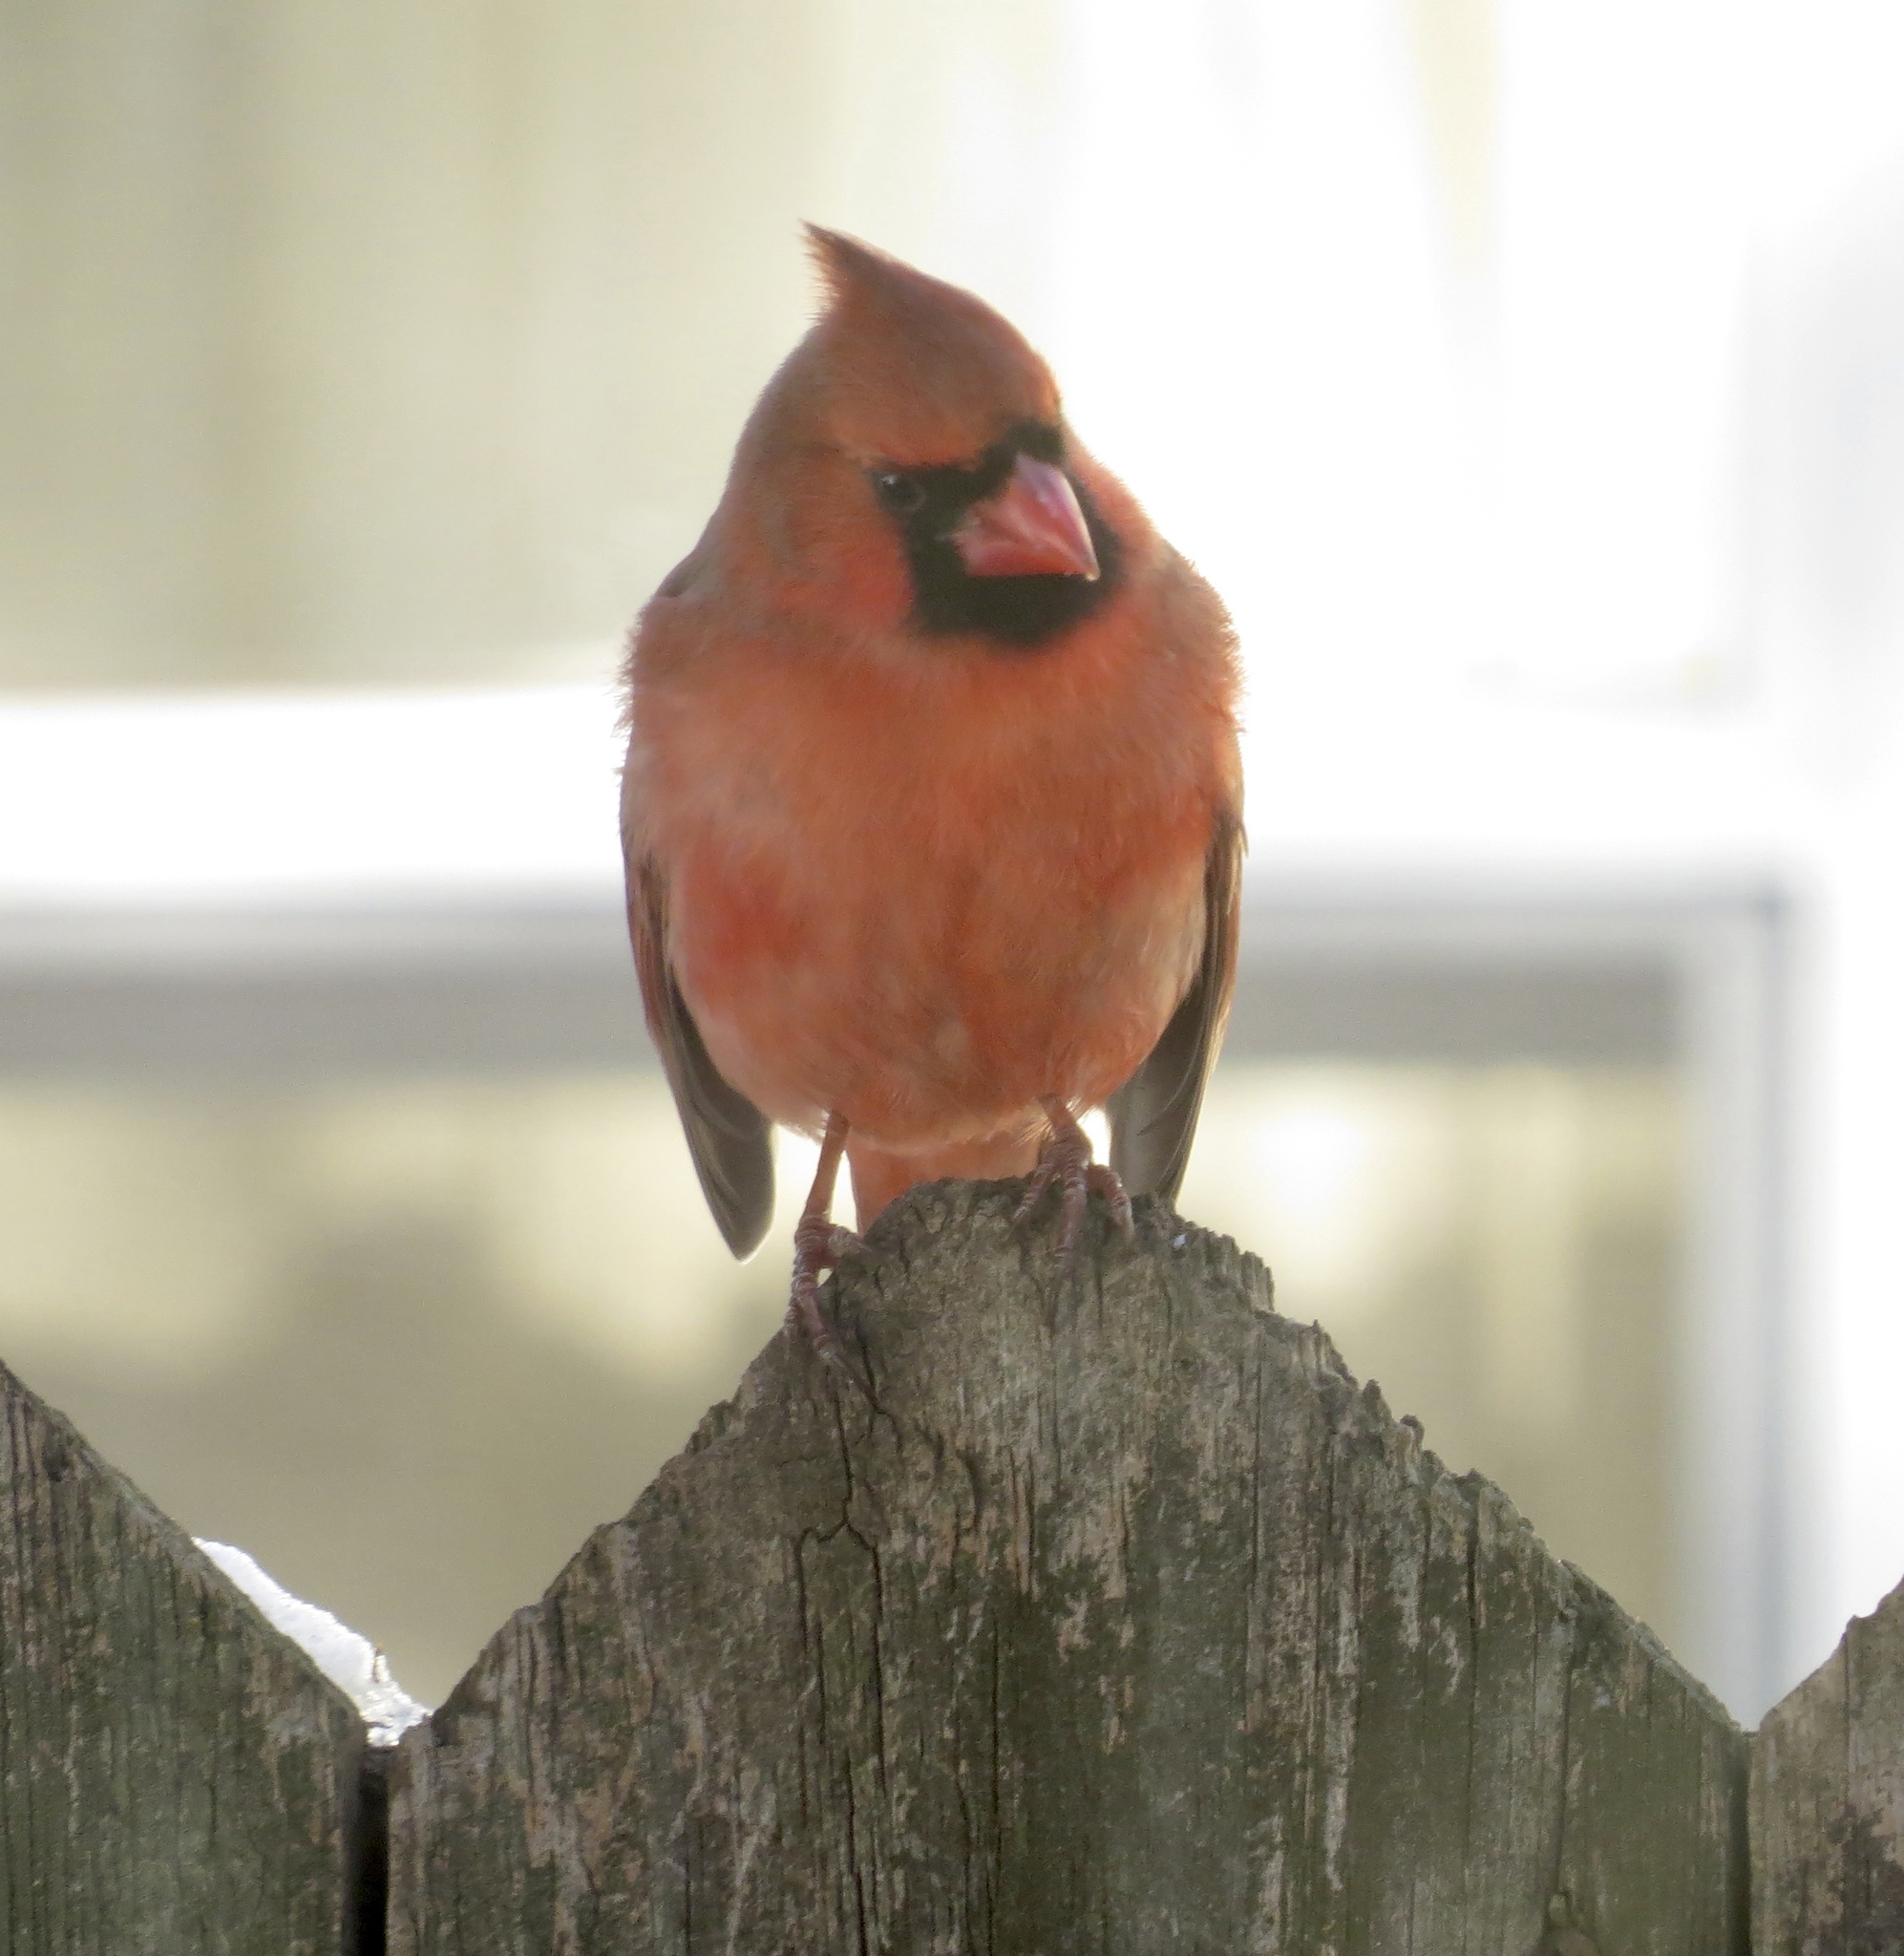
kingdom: Animalia
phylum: Chordata
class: Aves
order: Passeriformes
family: Cardinalidae
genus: Cardinalis
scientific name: Cardinalis cardinalis
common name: Northern cardinal
